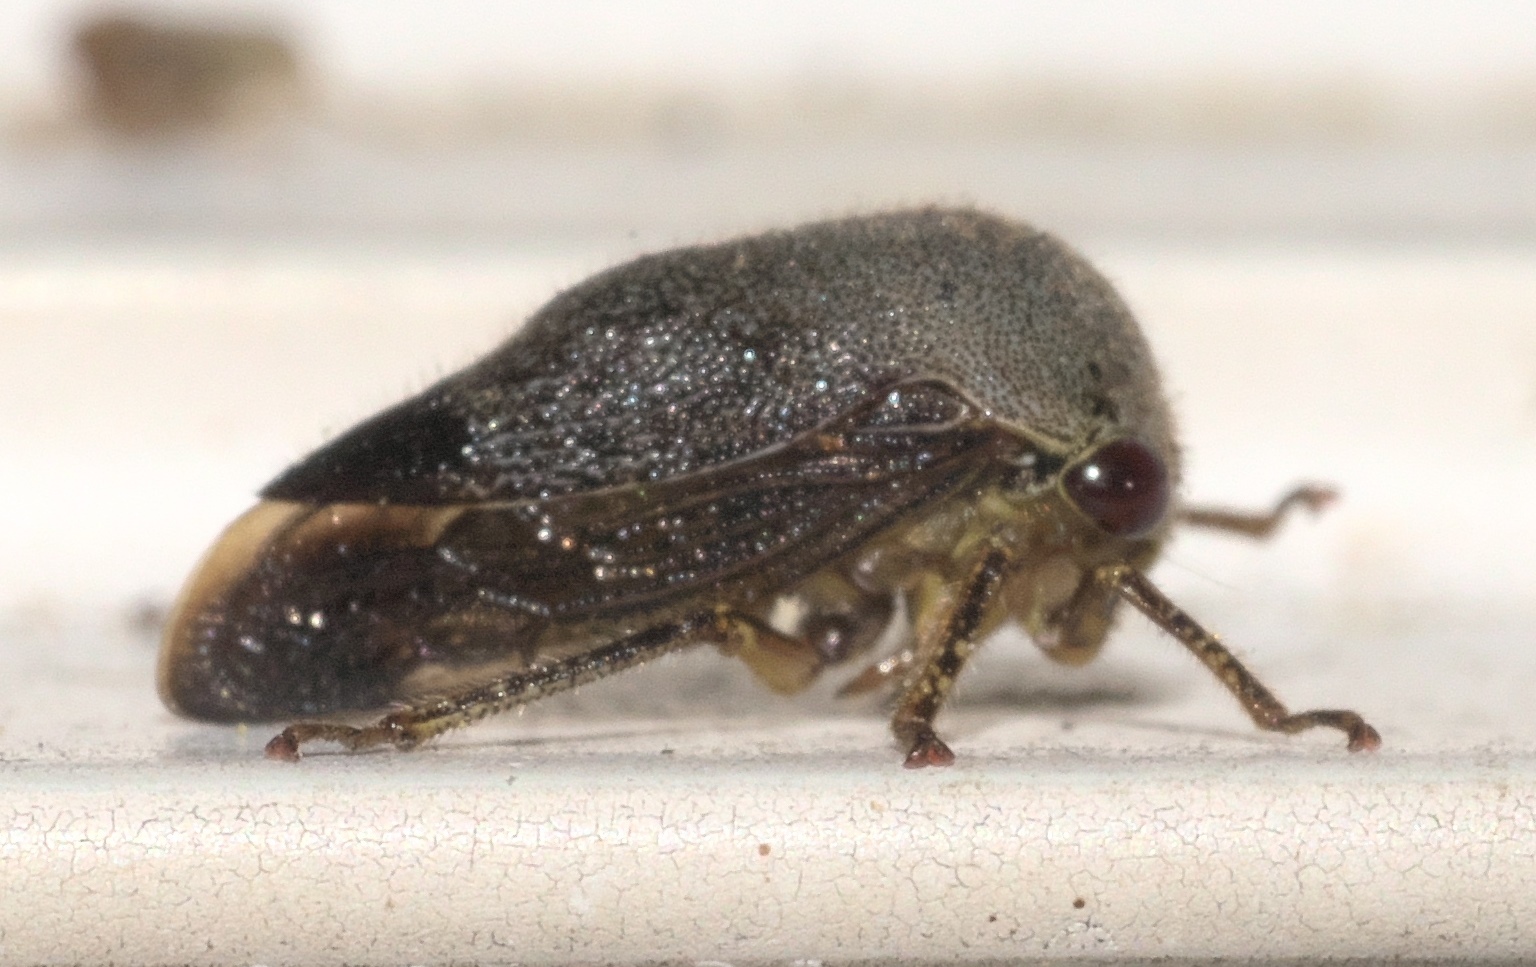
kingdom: Animalia
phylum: Arthropoda
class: Insecta
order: Hemiptera
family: Membracidae
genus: Carynota
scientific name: Carynota mera
